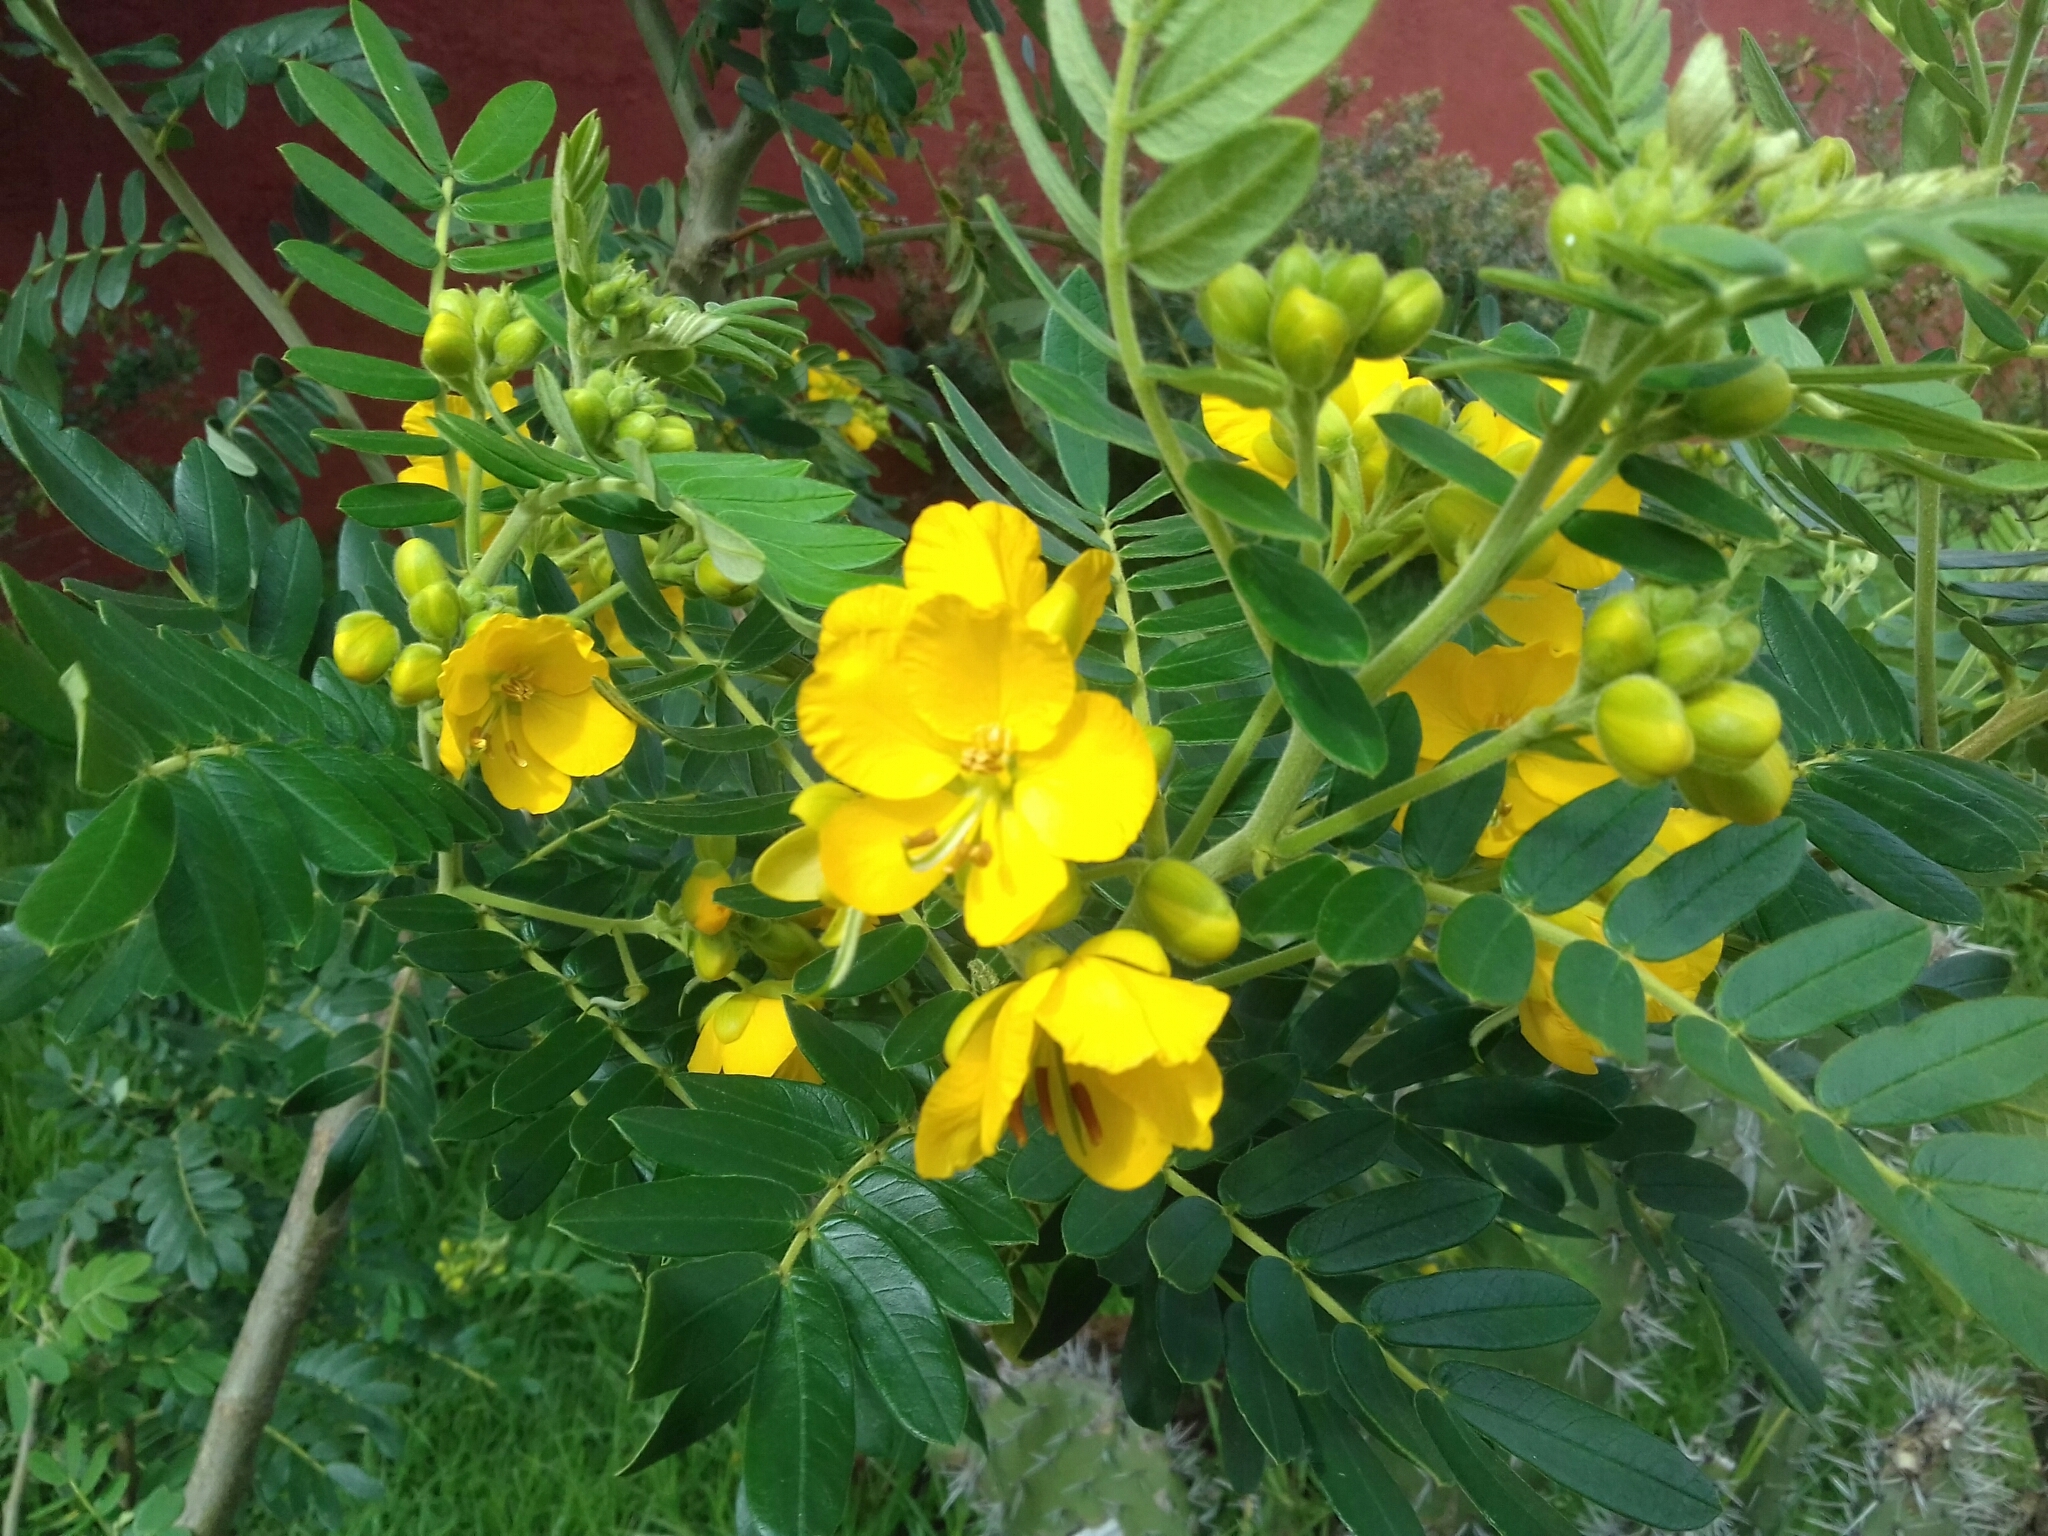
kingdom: Plantae
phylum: Tracheophyta
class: Magnoliopsida
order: Fabales
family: Fabaceae
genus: Senna
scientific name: Senna multiglandulosa
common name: Glandular senna
